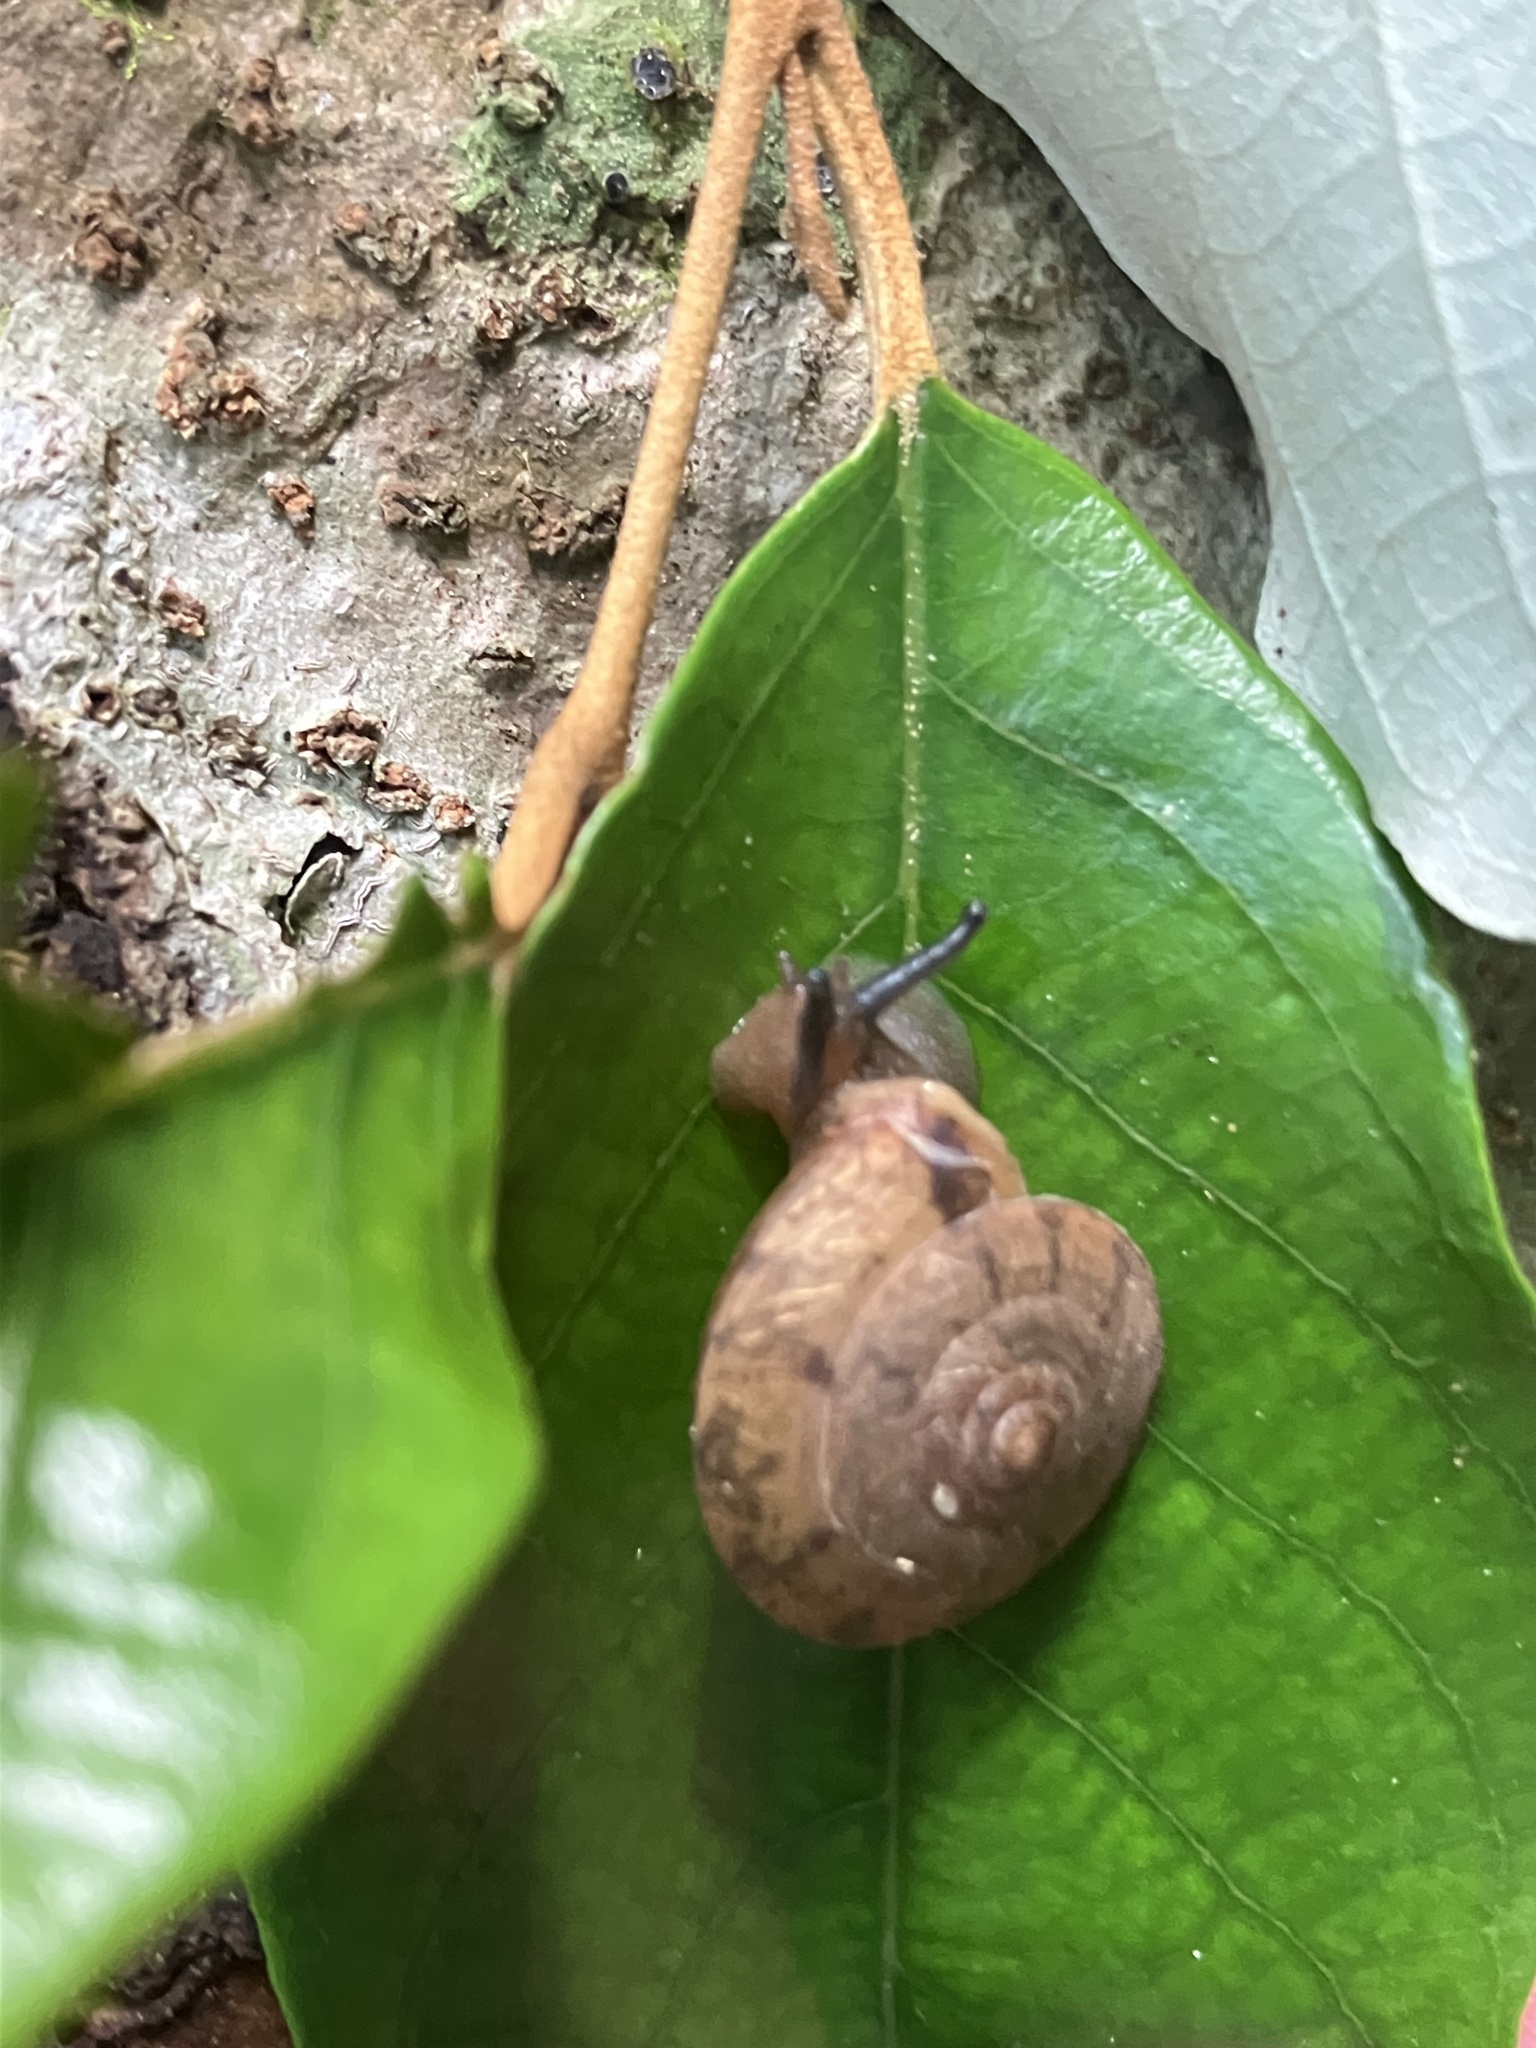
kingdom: Animalia
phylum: Mollusca
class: Gastropoda
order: Stylommatophora
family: Camaenidae
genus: Aegista
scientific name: Aegista lautsi
